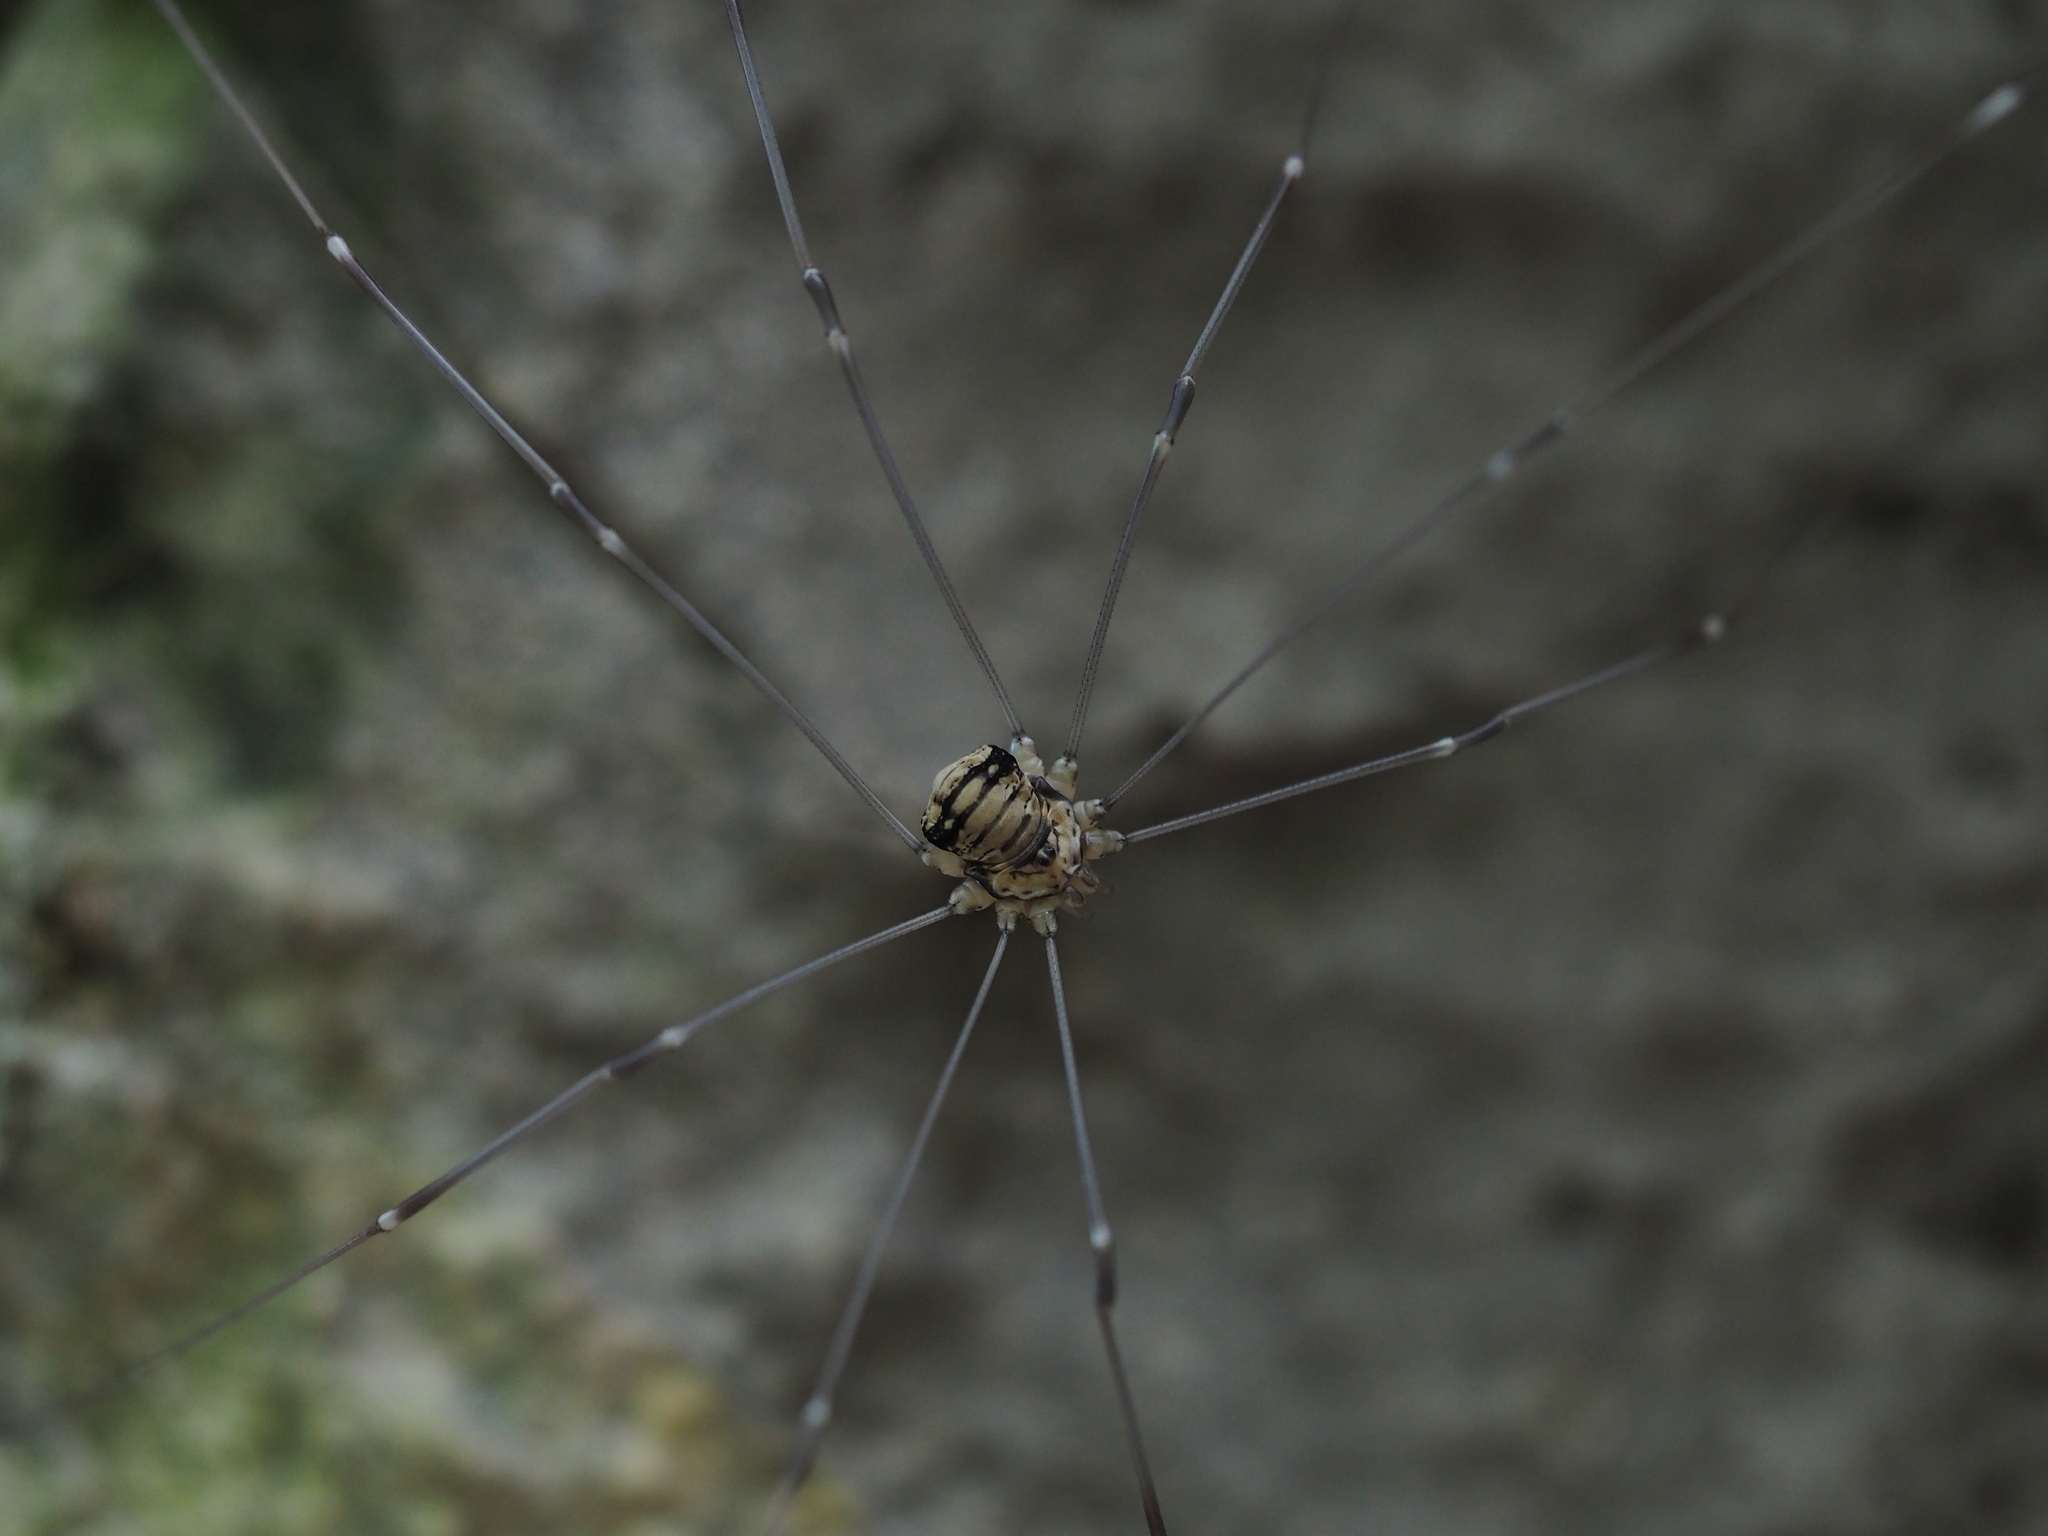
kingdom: Animalia
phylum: Arthropoda
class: Arachnida
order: Opiliones
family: Sclerosomatidae
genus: Leiobunum
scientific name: Leiobunum limbatum
